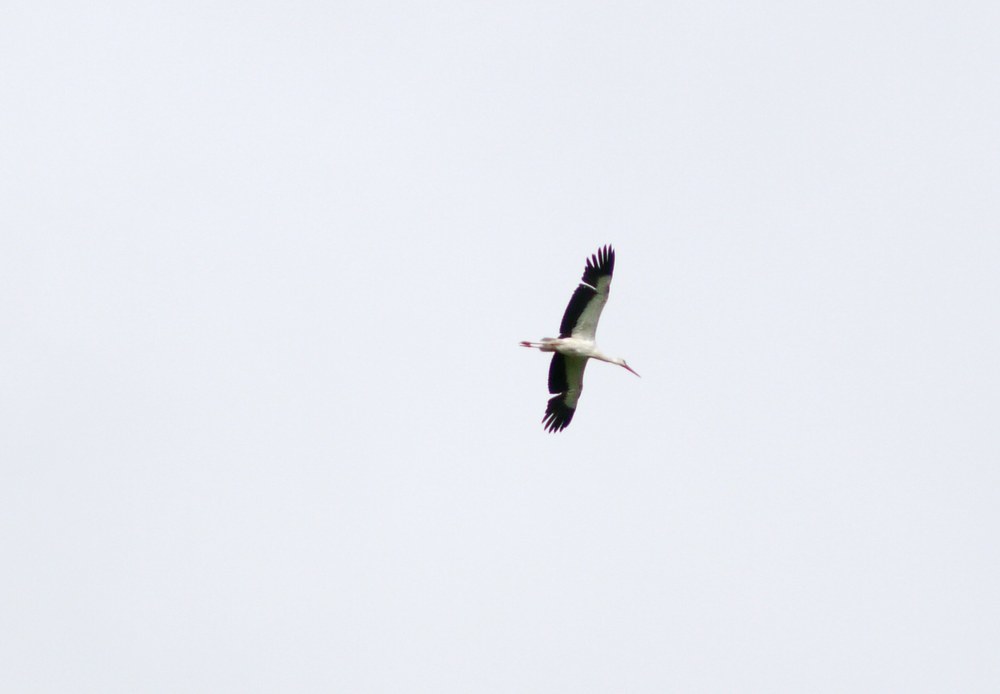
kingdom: Animalia
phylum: Chordata
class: Aves
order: Ciconiiformes
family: Ciconiidae
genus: Ciconia
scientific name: Ciconia ciconia
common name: White stork
